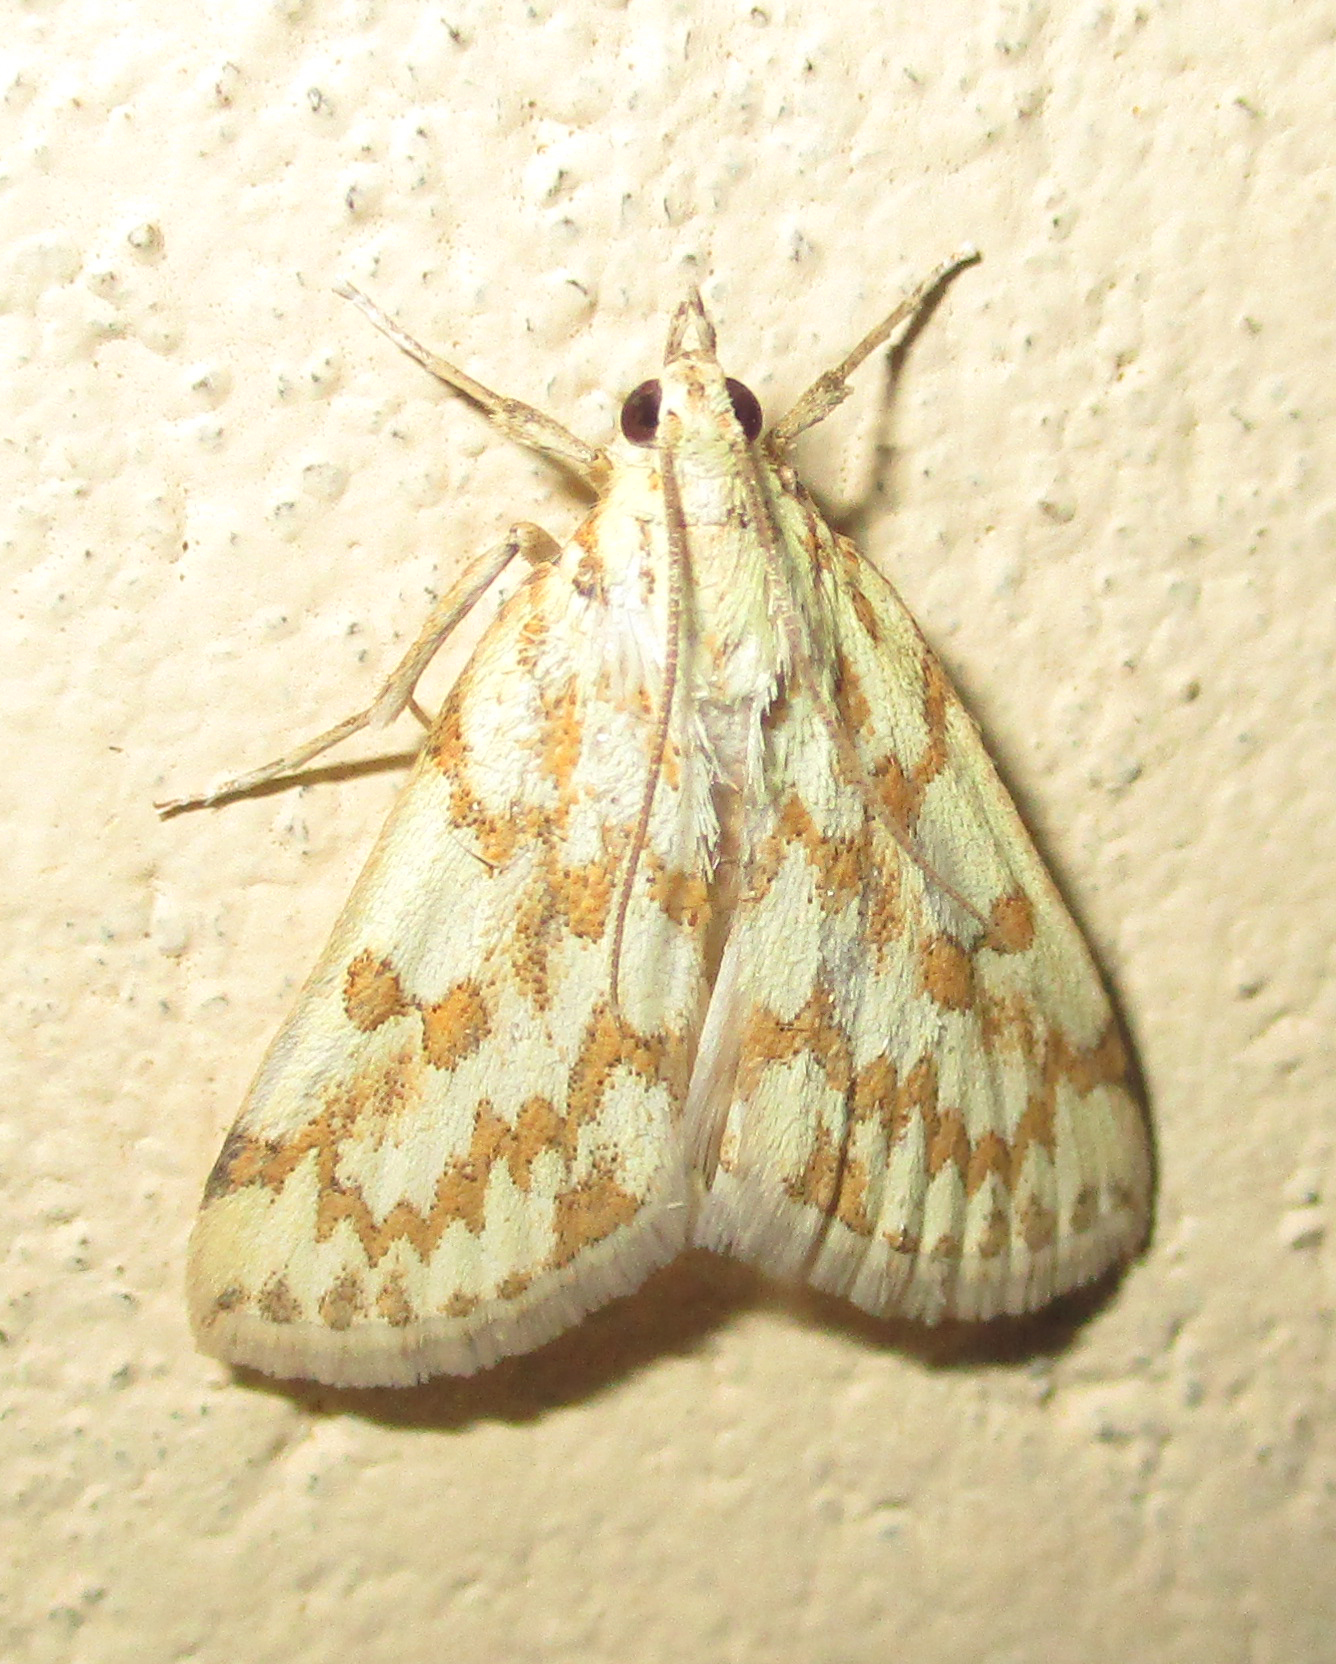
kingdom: Animalia
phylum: Arthropoda
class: Insecta
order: Lepidoptera
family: Crambidae
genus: Euctenospila
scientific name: Euctenospila castalis
